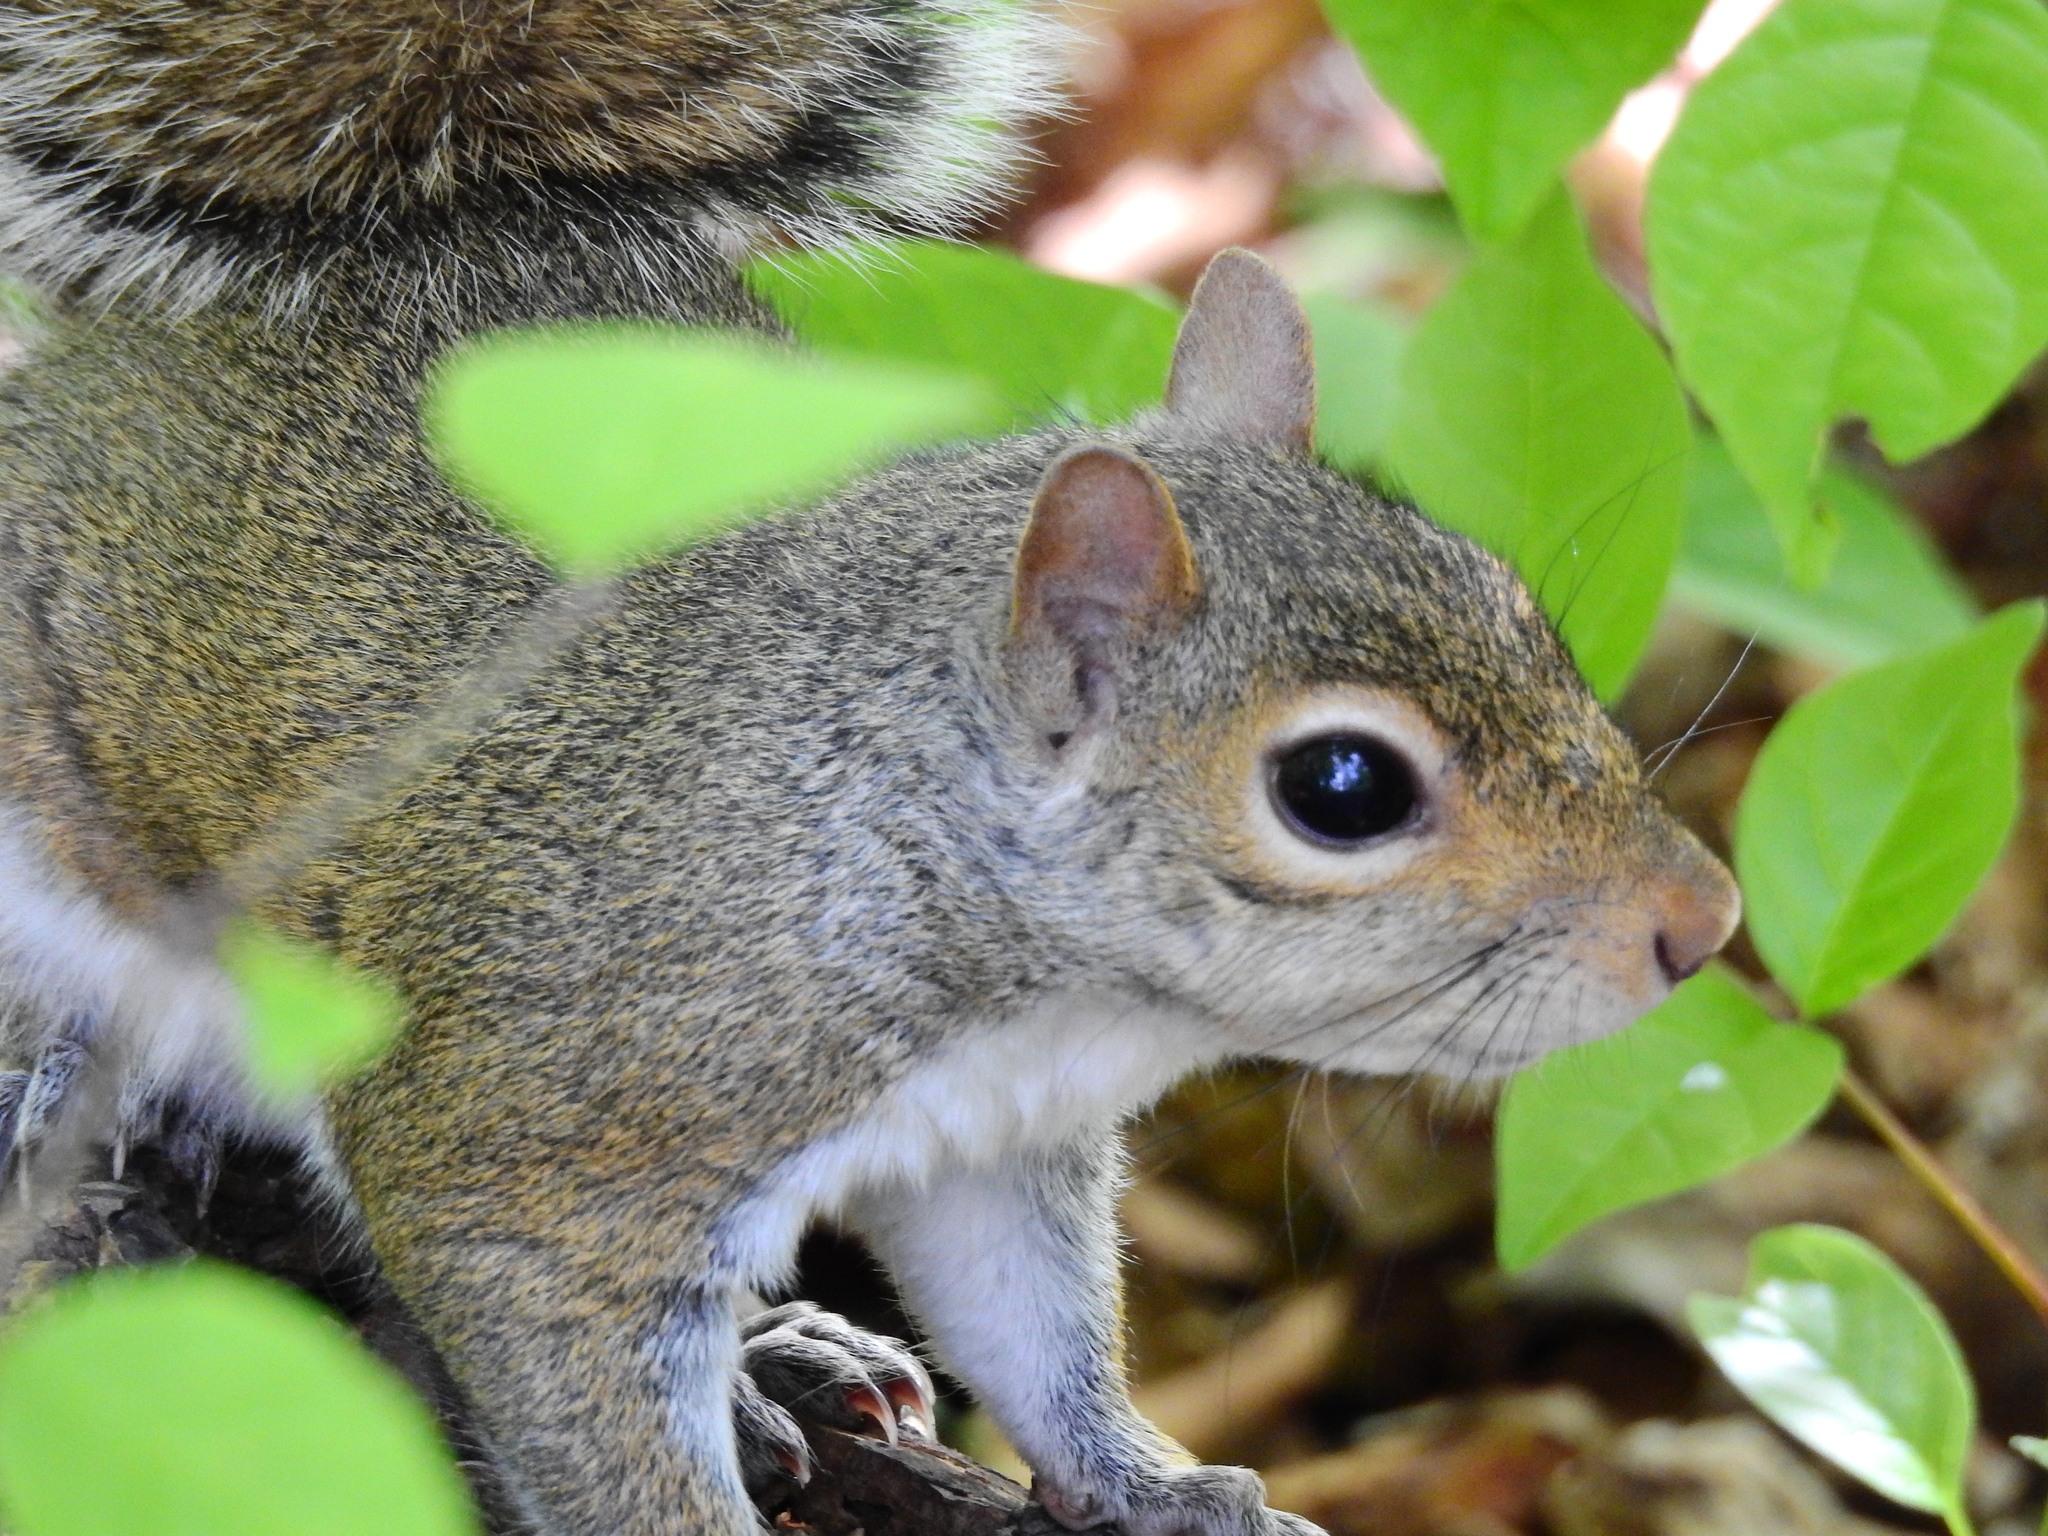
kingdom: Animalia
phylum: Chordata
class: Mammalia
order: Rodentia
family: Sciuridae
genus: Sciurus
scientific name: Sciurus carolinensis
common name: Eastern gray squirrel
